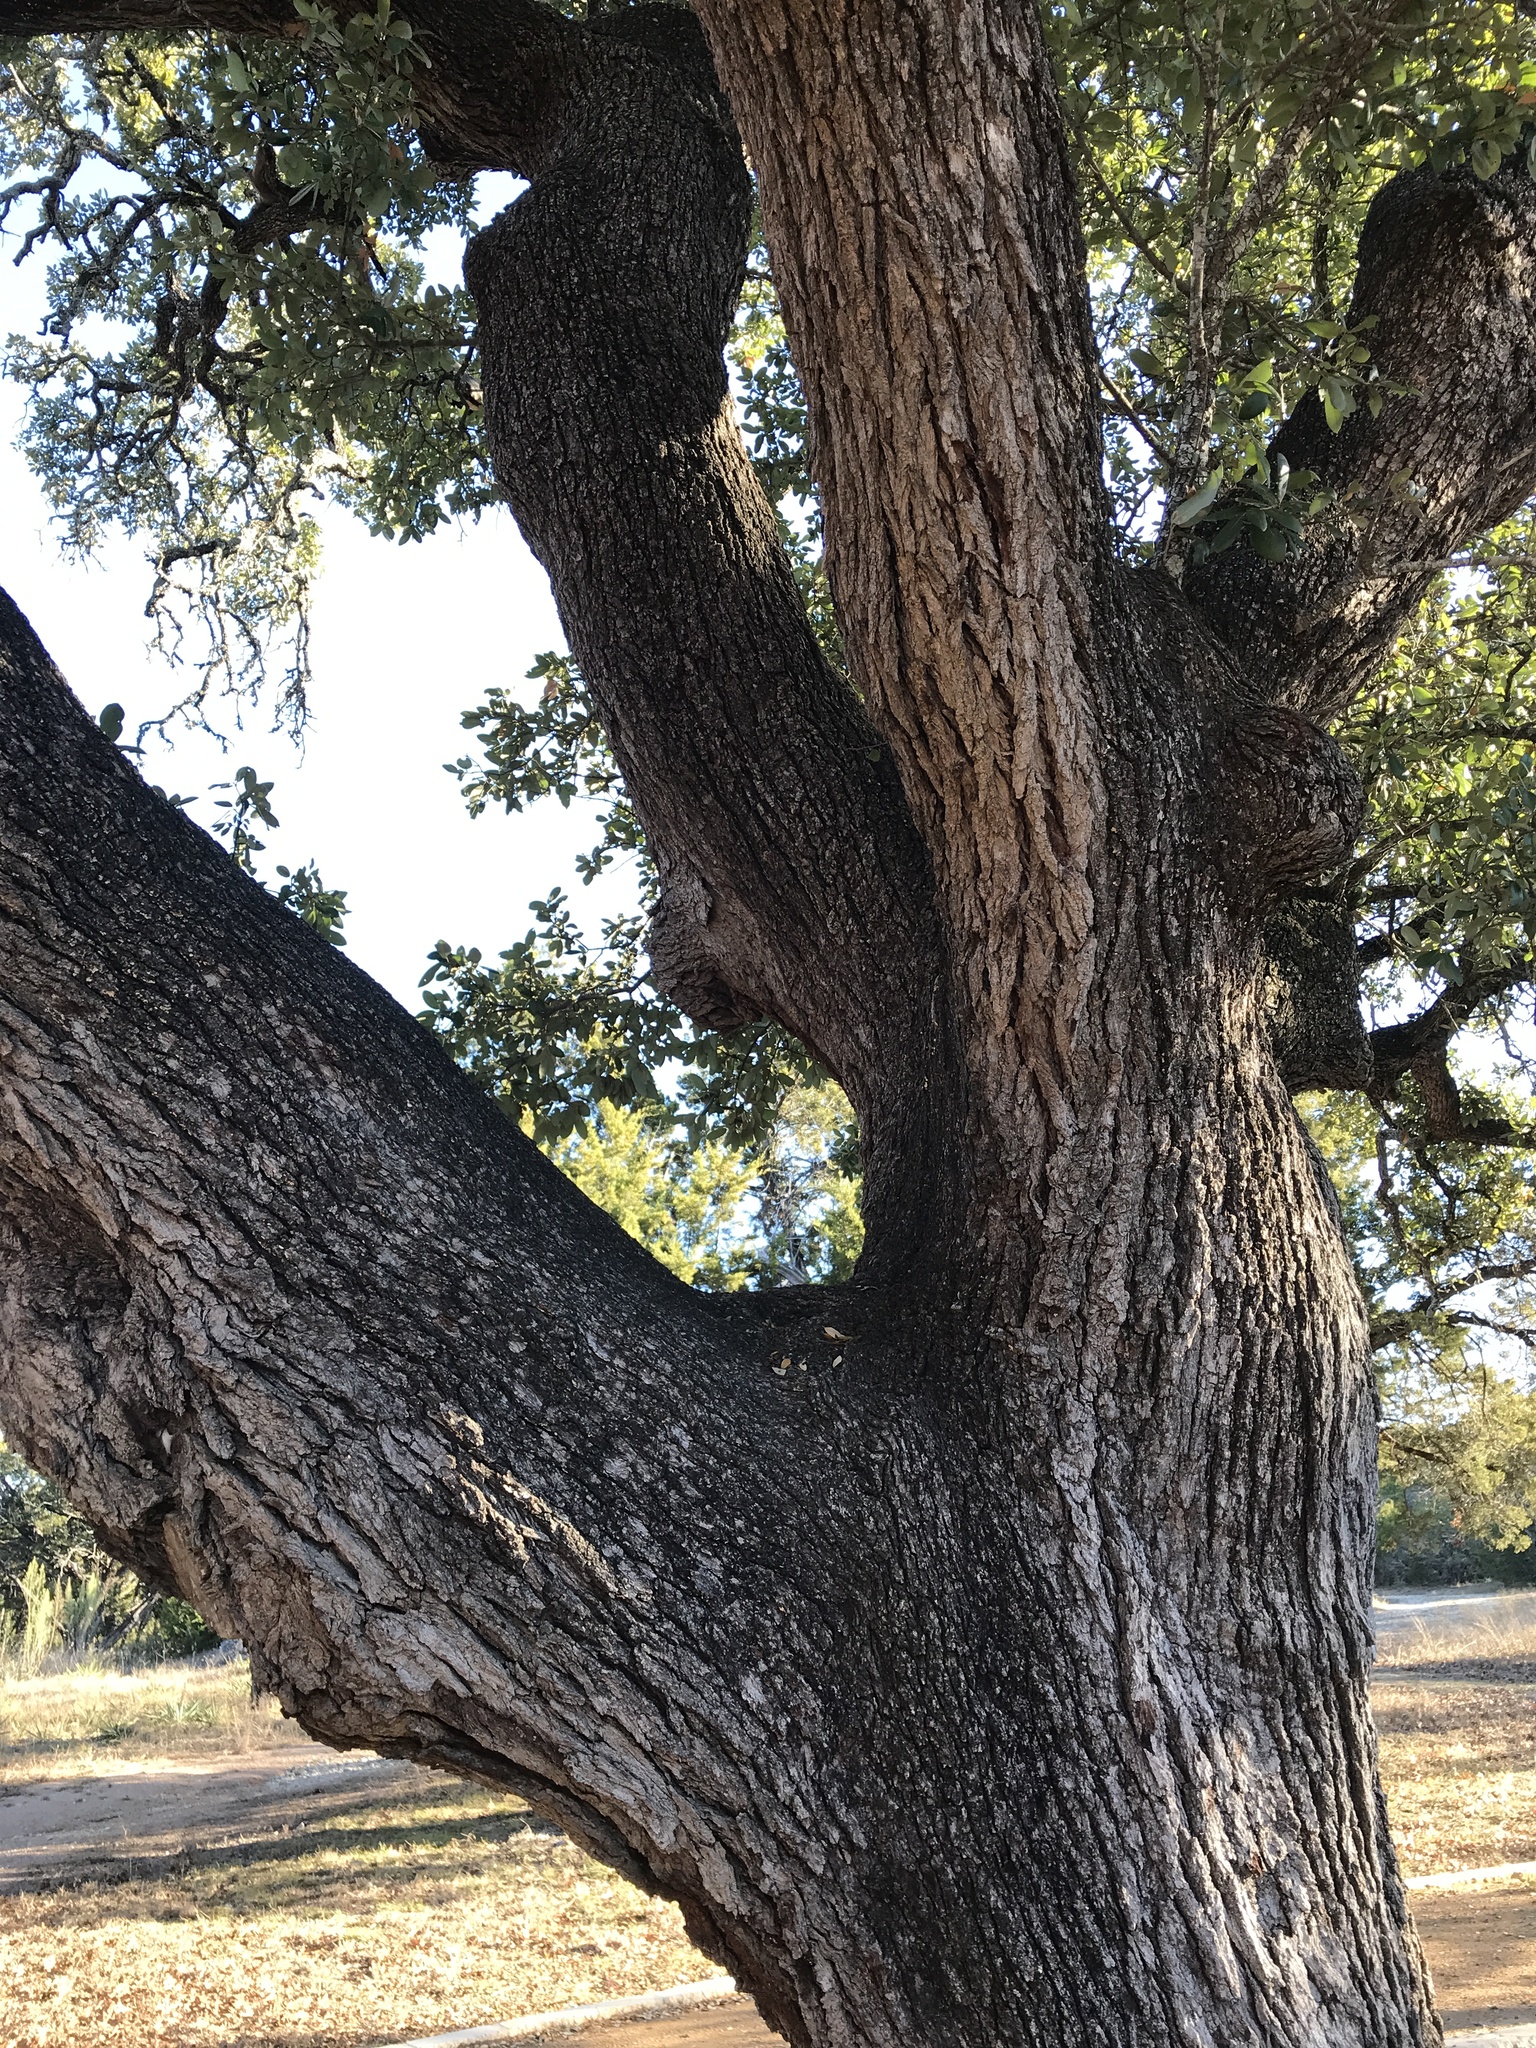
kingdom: Plantae
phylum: Tracheophyta
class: Magnoliopsida
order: Fagales
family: Fagaceae
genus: Quercus
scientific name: Quercus fusiformis
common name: Texas live oak
